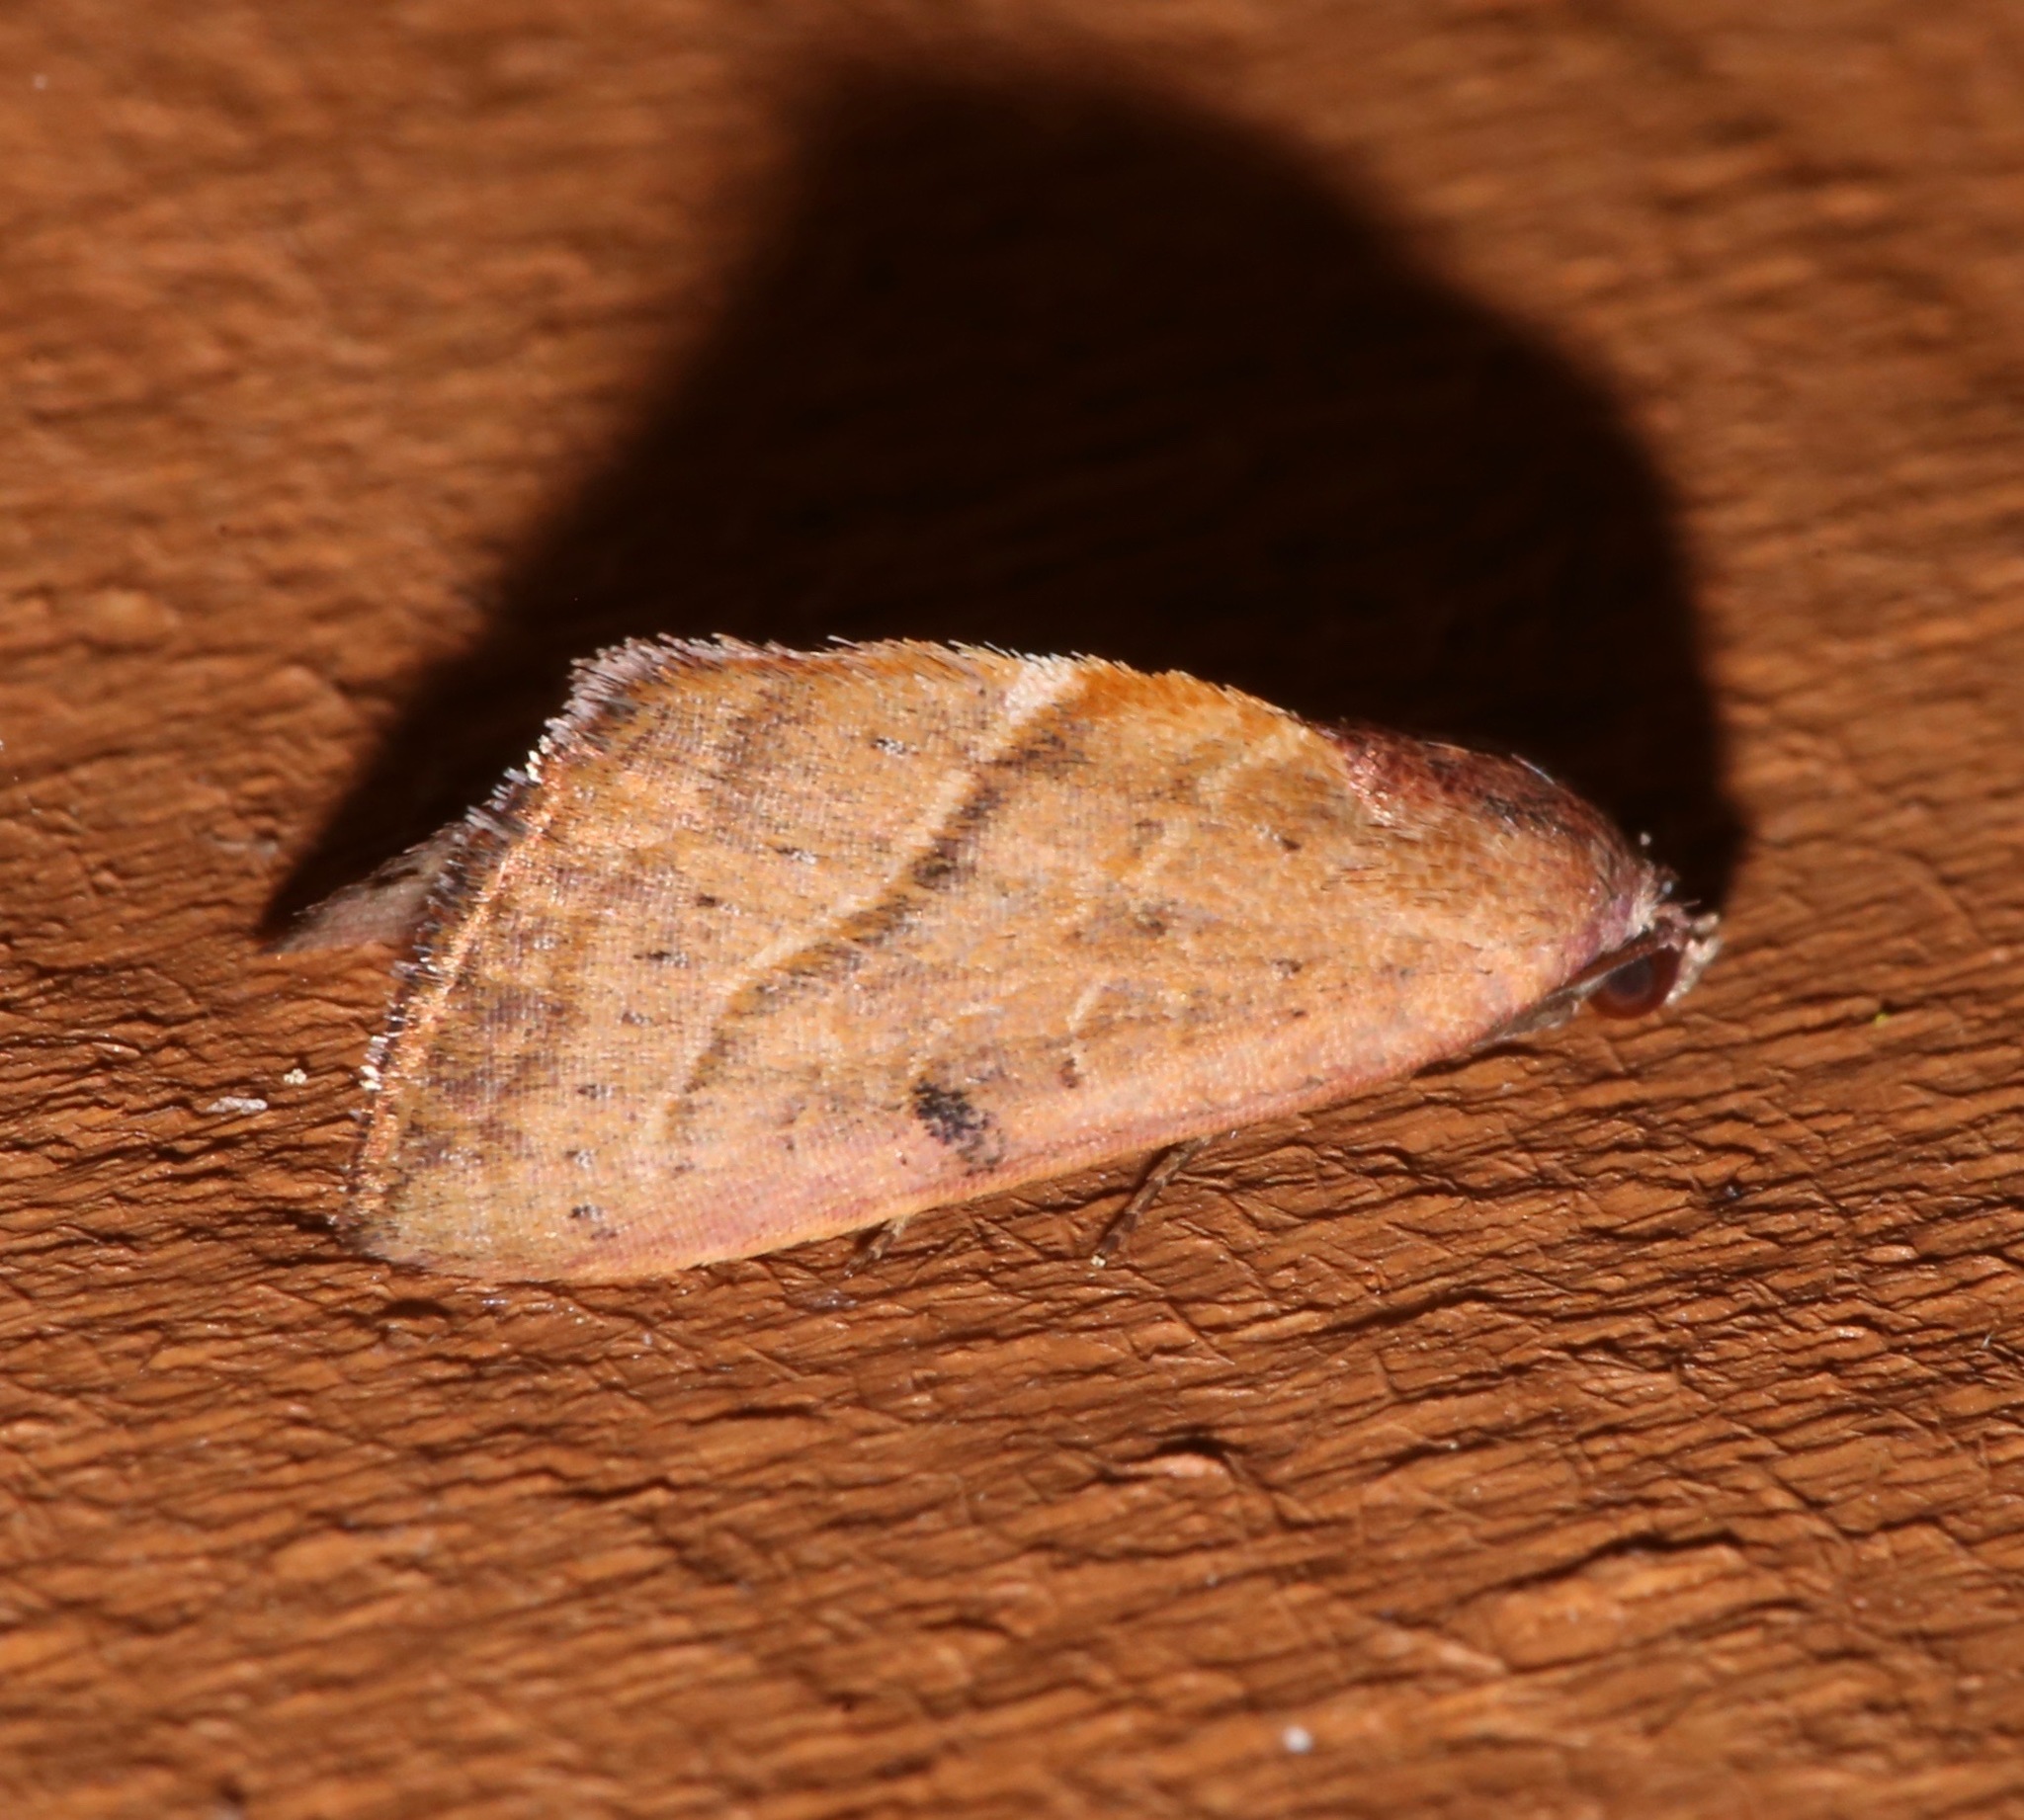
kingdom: Animalia
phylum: Arthropoda
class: Insecta
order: Lepidoptera
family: Noctuidae
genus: Galgula
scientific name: Galgula partita
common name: Wedgeling
